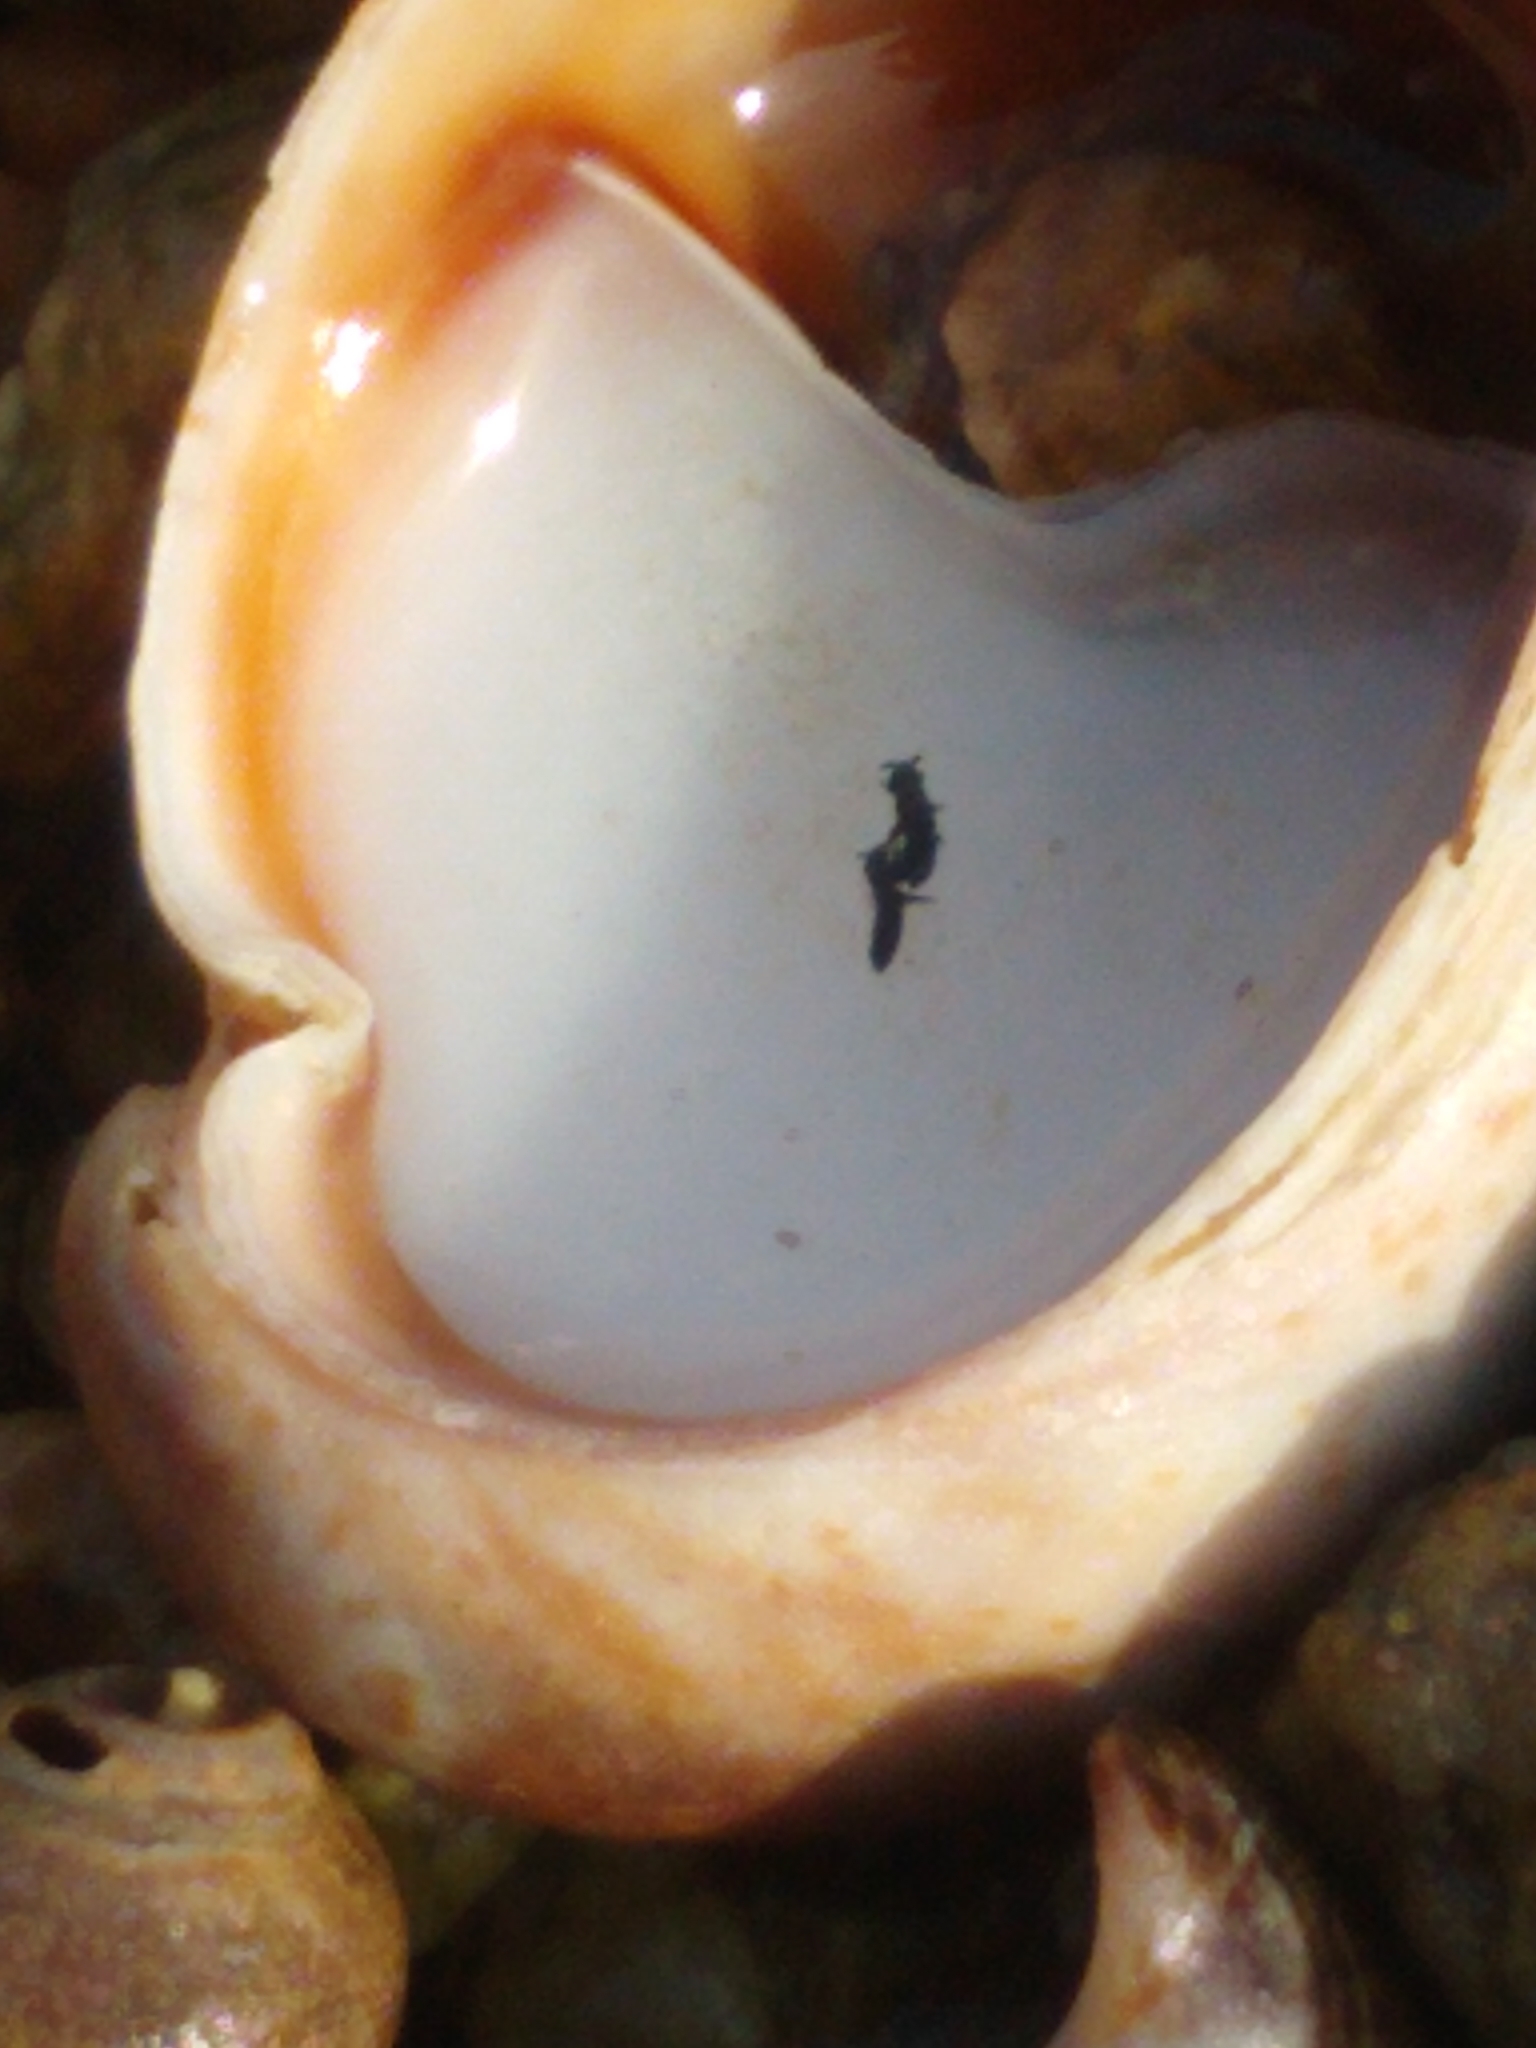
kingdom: Animalia
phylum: Arthropoda
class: Collembola
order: Poduromorpha
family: Neanuridae
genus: Anurida
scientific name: Anurida maritima
